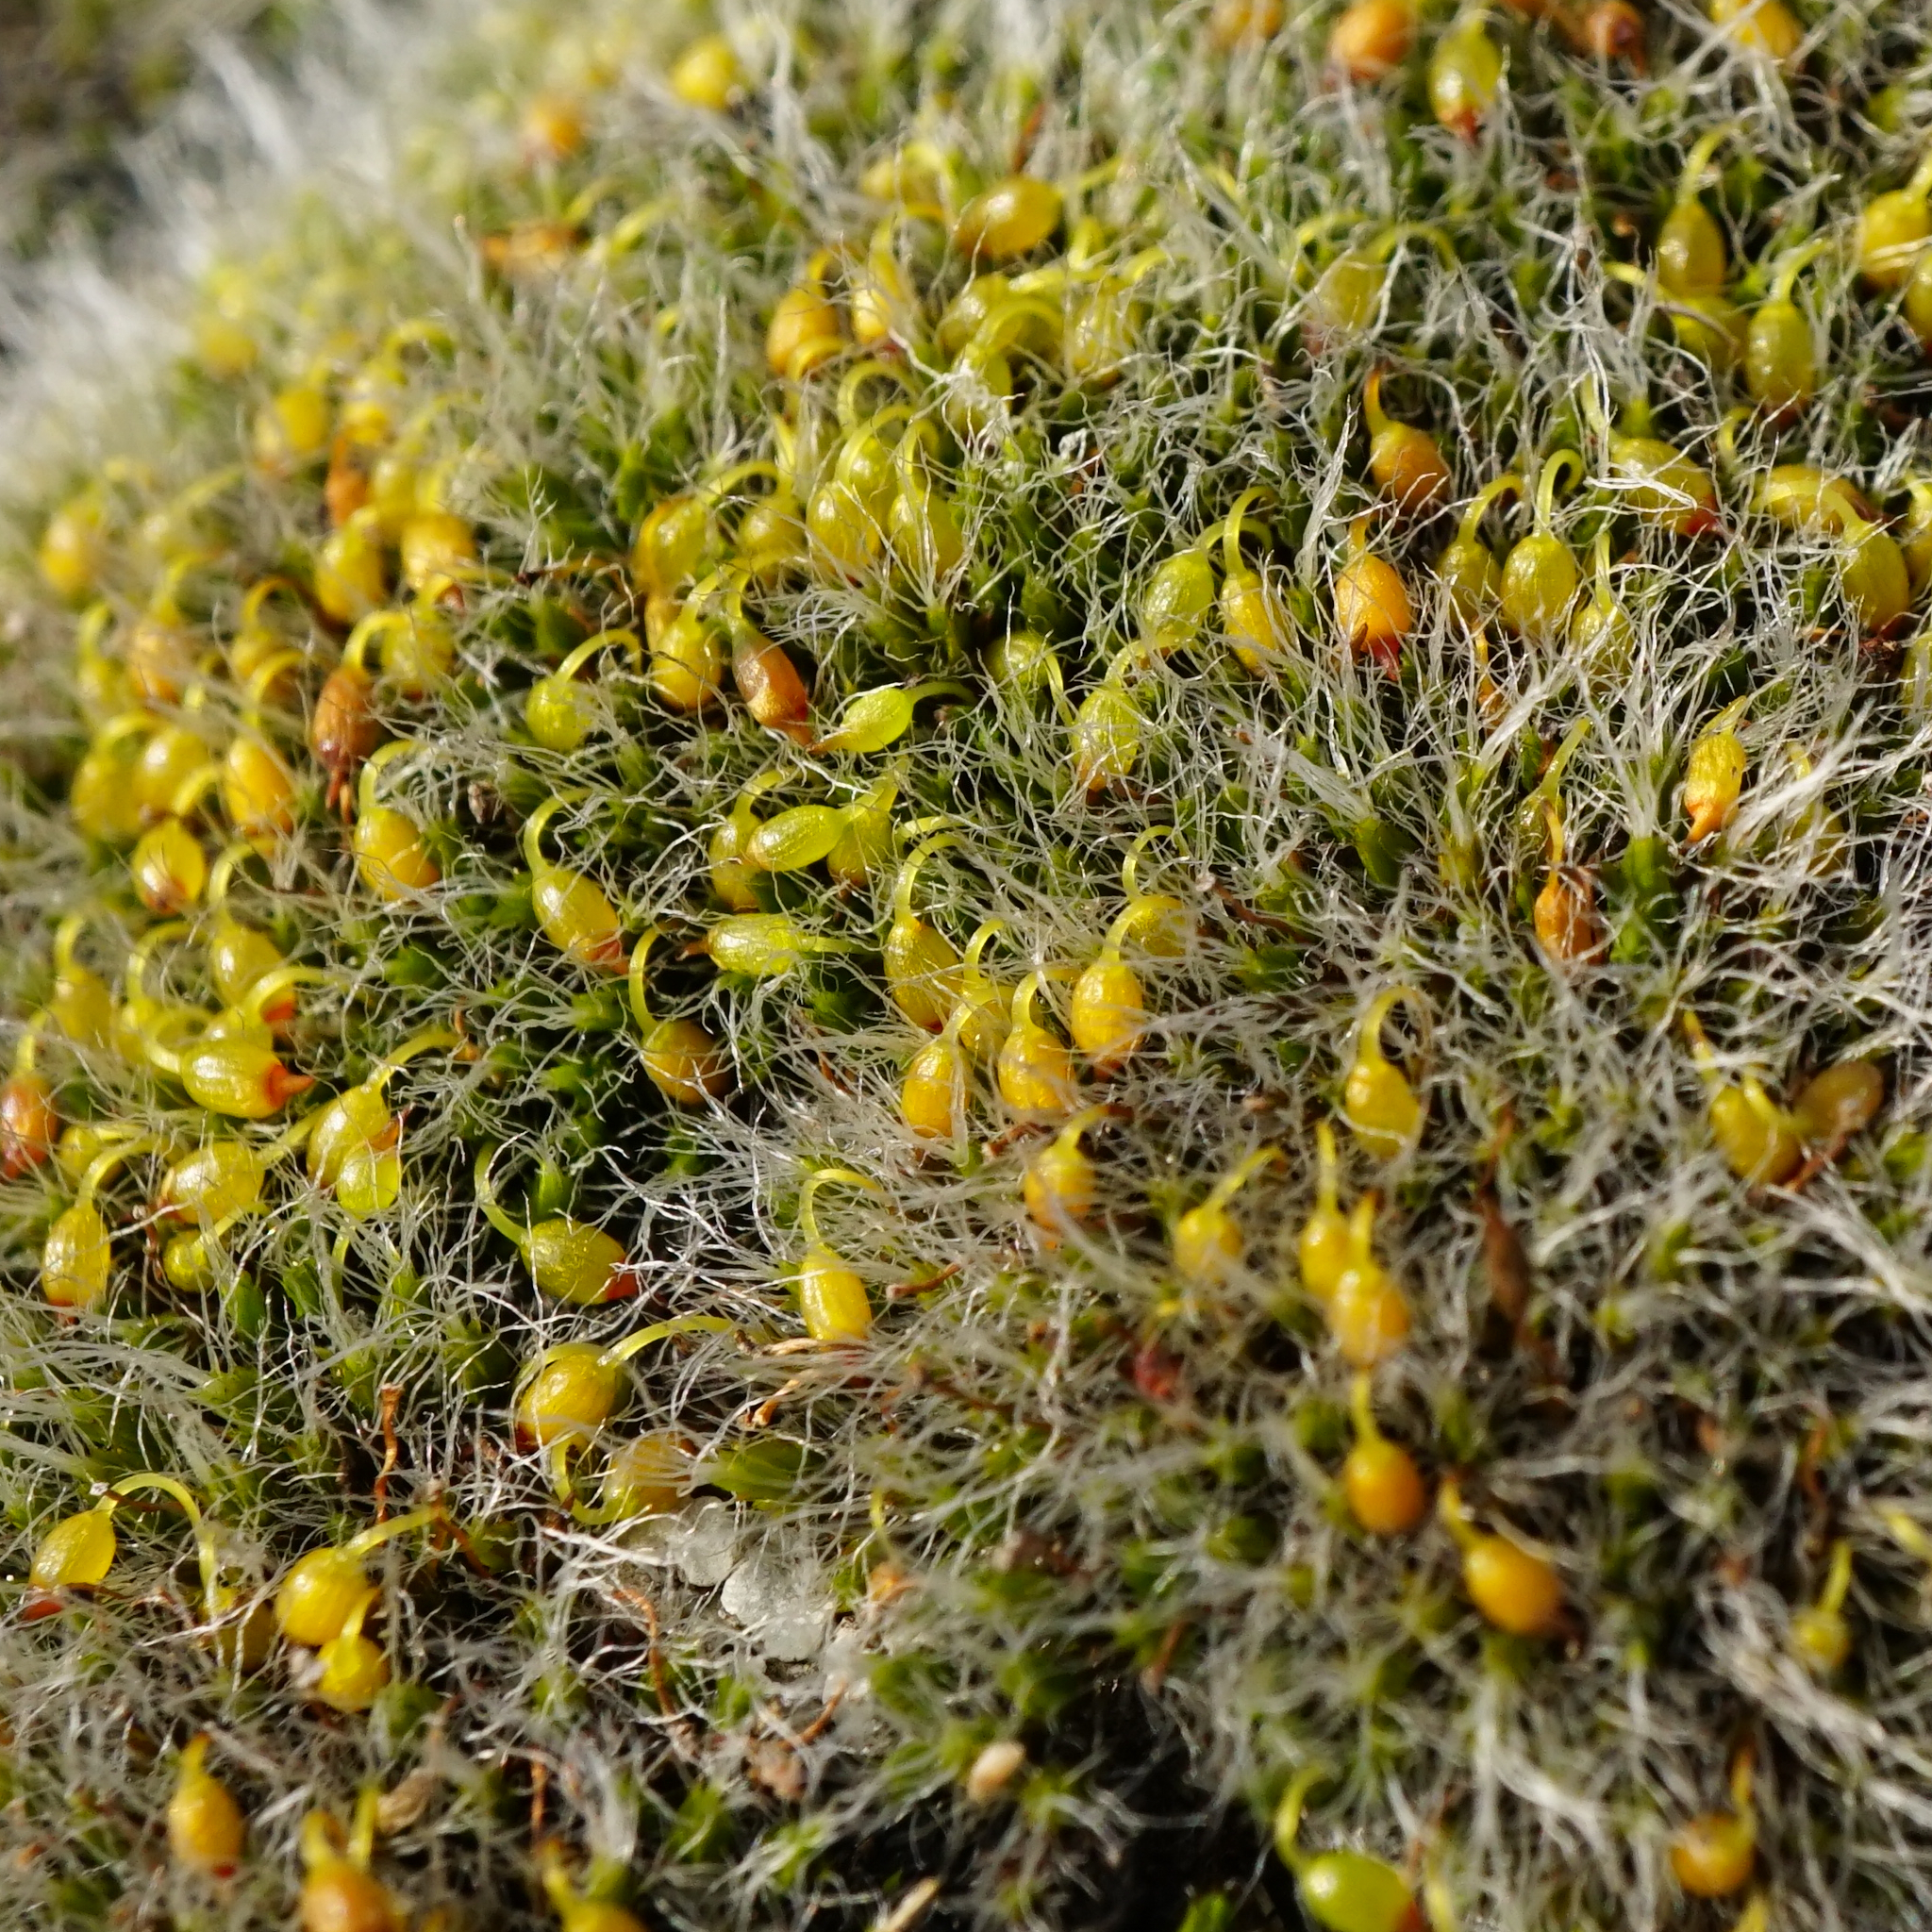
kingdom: Plantae
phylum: Bryophyta
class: Bryopsida
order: Grimmiales
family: Grimmiaceae
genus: Grimmia
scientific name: Grimmia pulvinata
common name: Grey-cushioned grimmia
